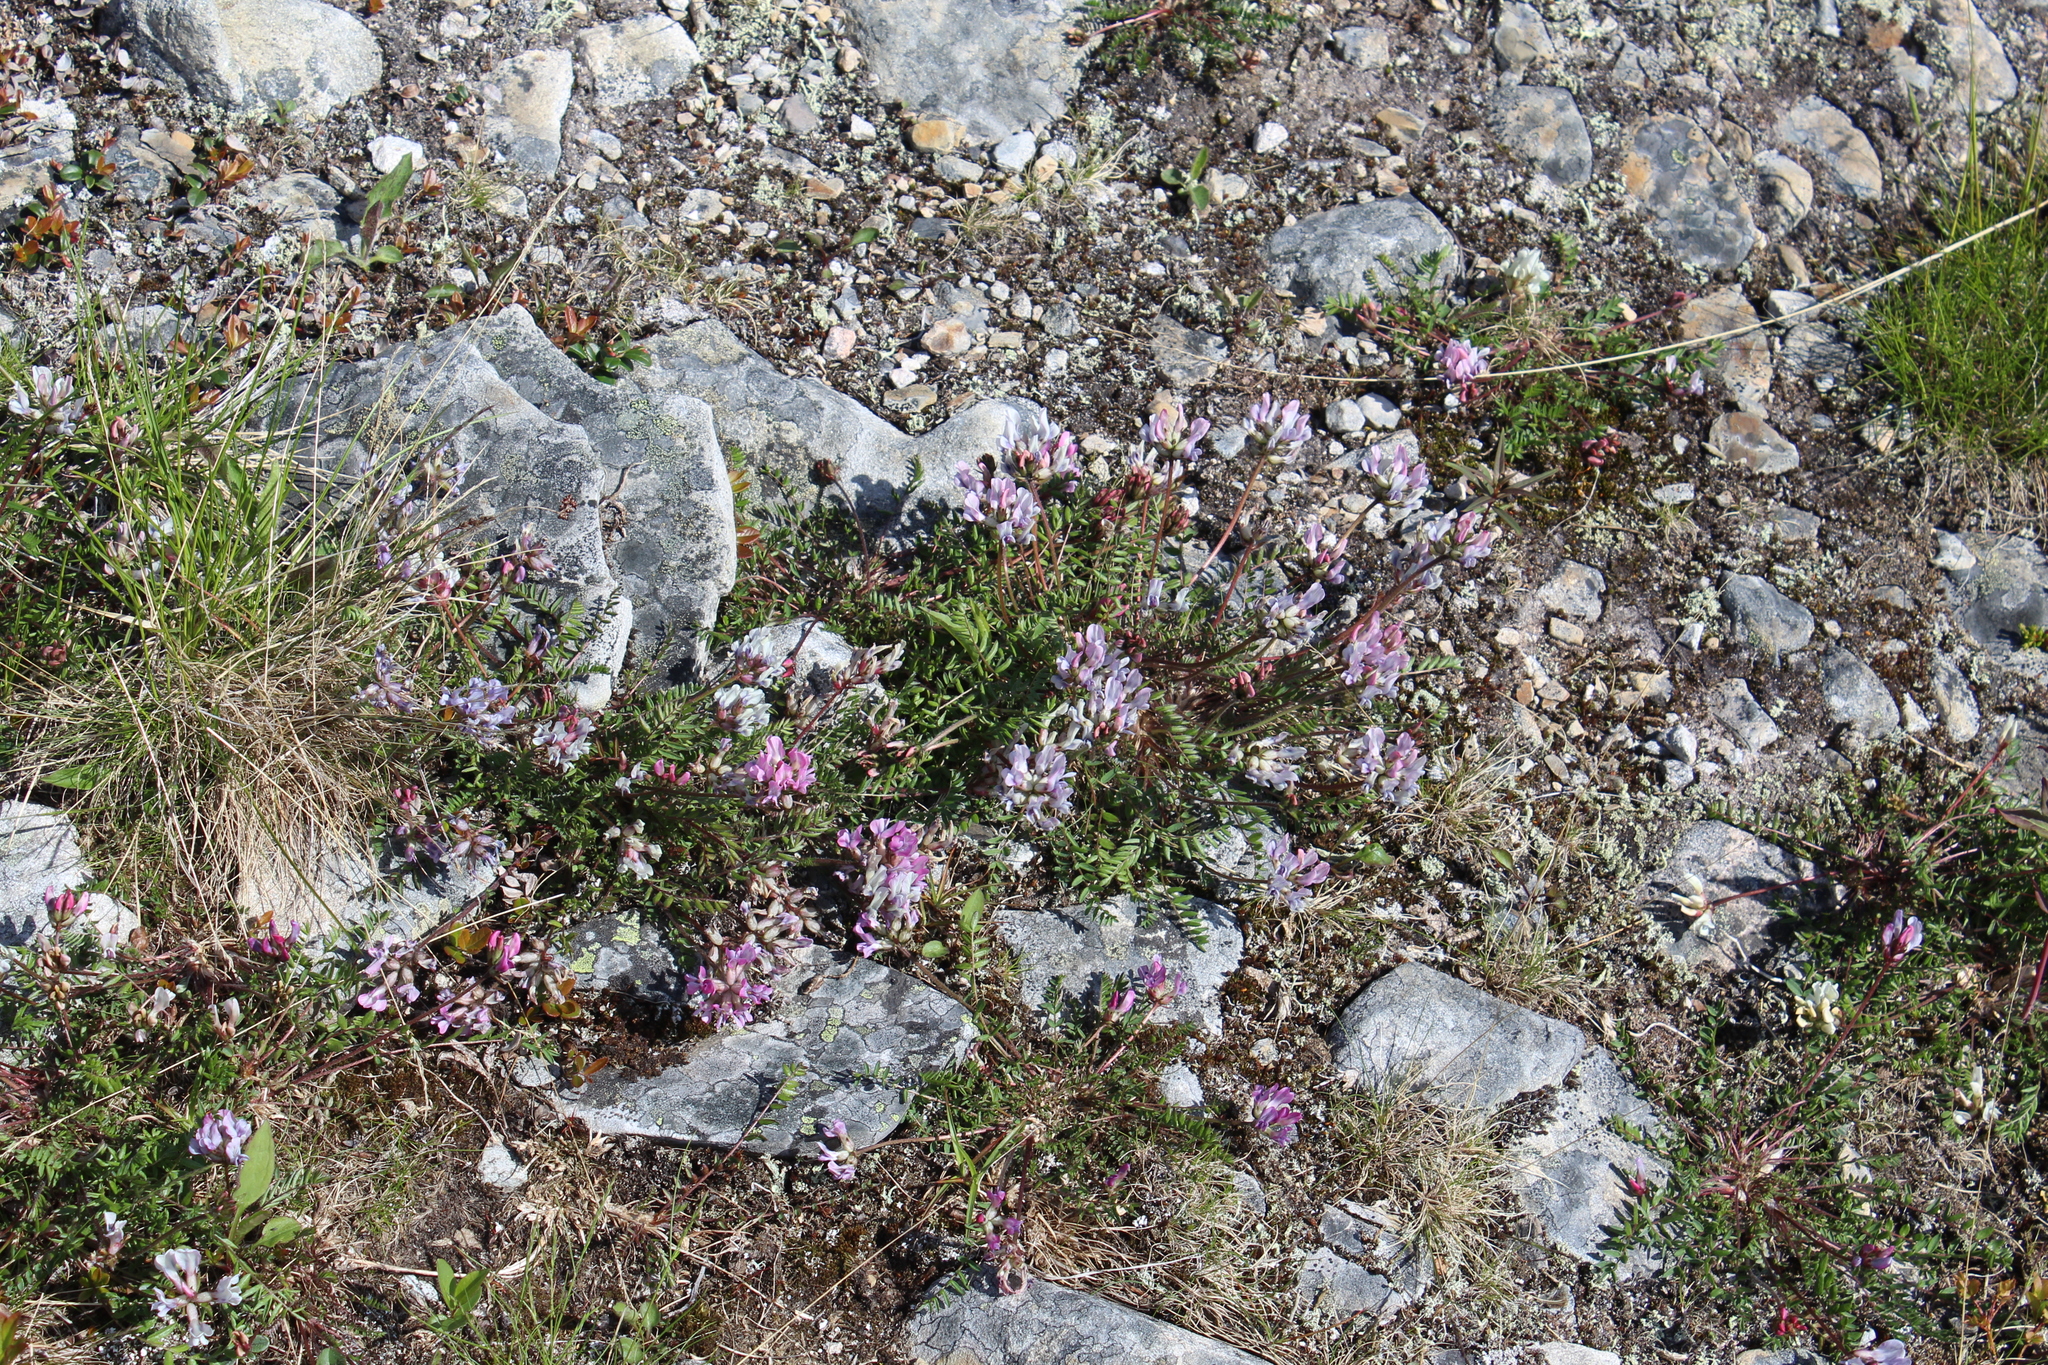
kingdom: Plantae
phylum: Tracheophyta
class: Magnoliopsida
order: Fabales
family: Fabaceae
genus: Oxytropis
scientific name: Oxytropis sordida
